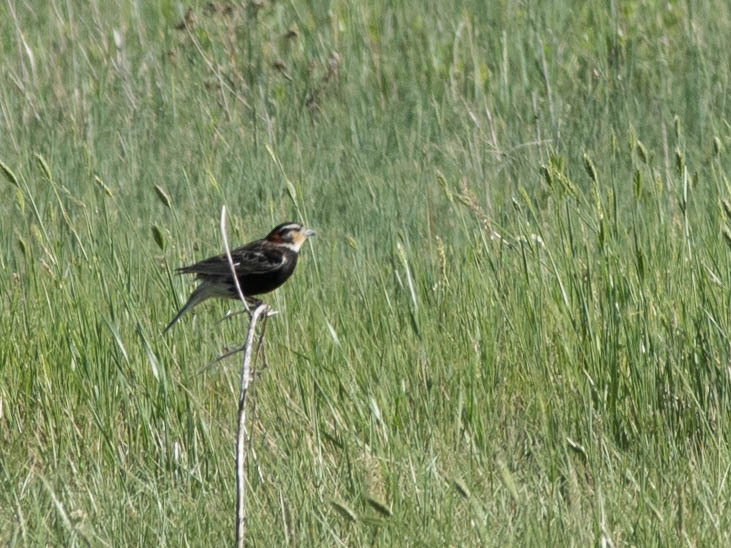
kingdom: Animalia
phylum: Chordata
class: Aves
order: Passeriformes
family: Calcariidae
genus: Calcarius
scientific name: Calcarius ornatus
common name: Chestnut-collared longspur
